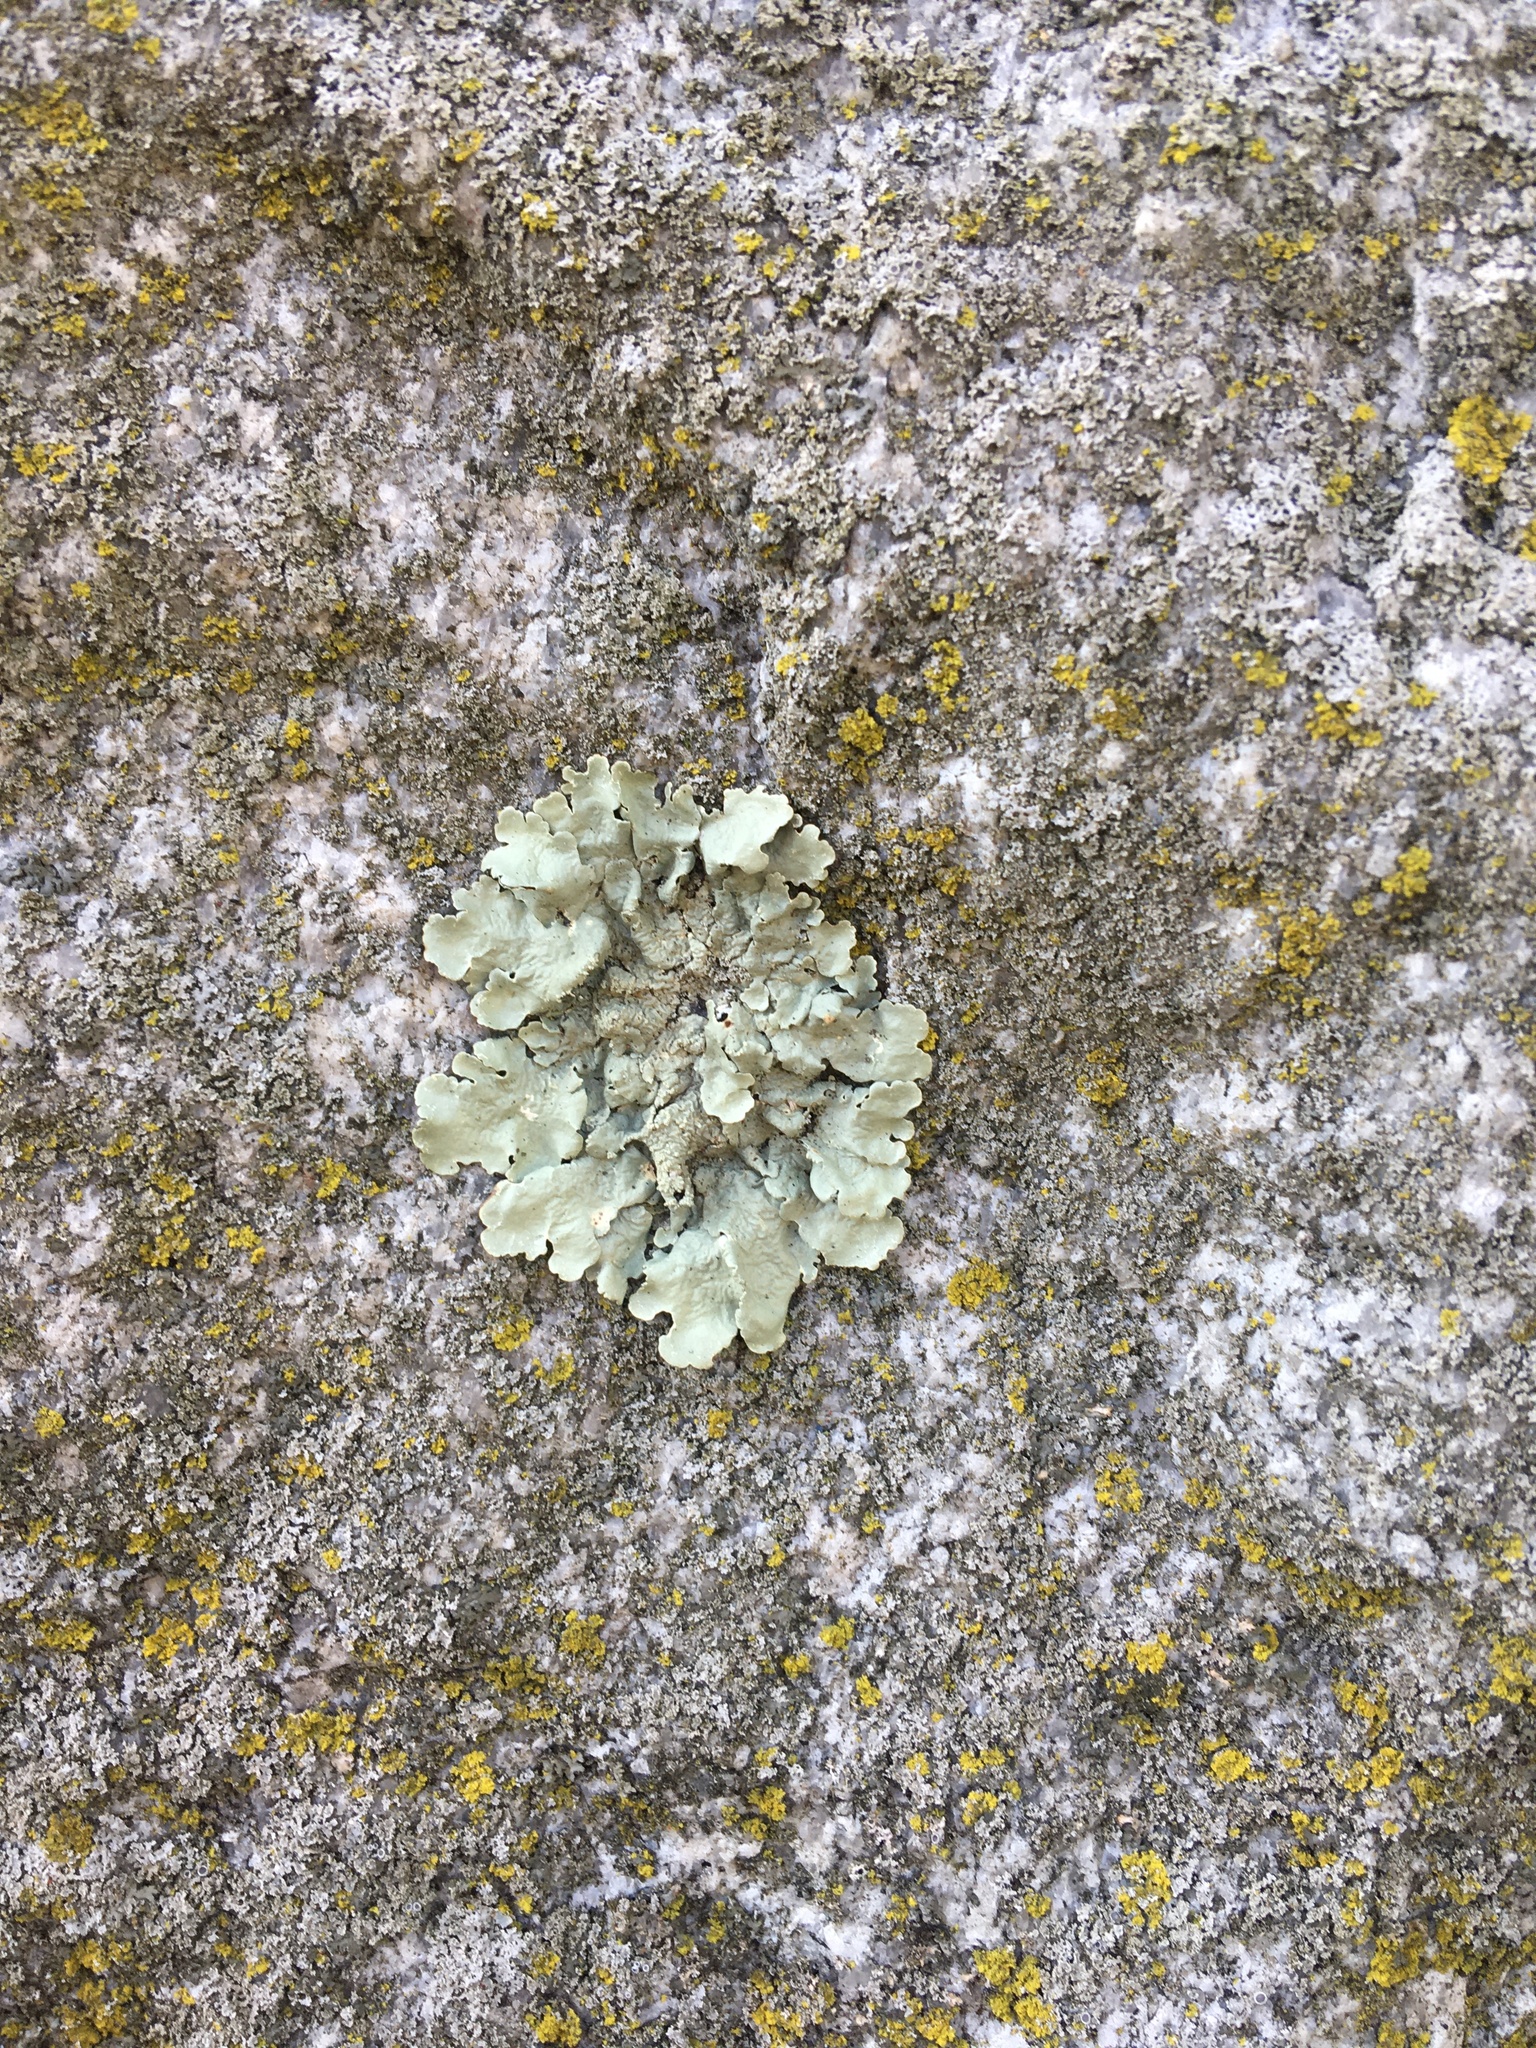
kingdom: Fungi
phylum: Ascomycota
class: Lecanoromycetes
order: Lecanorales
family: Parmeliaceae
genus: Flavoparmelia
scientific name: Flavoparmelia caperata
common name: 40-mile per hour lichen
